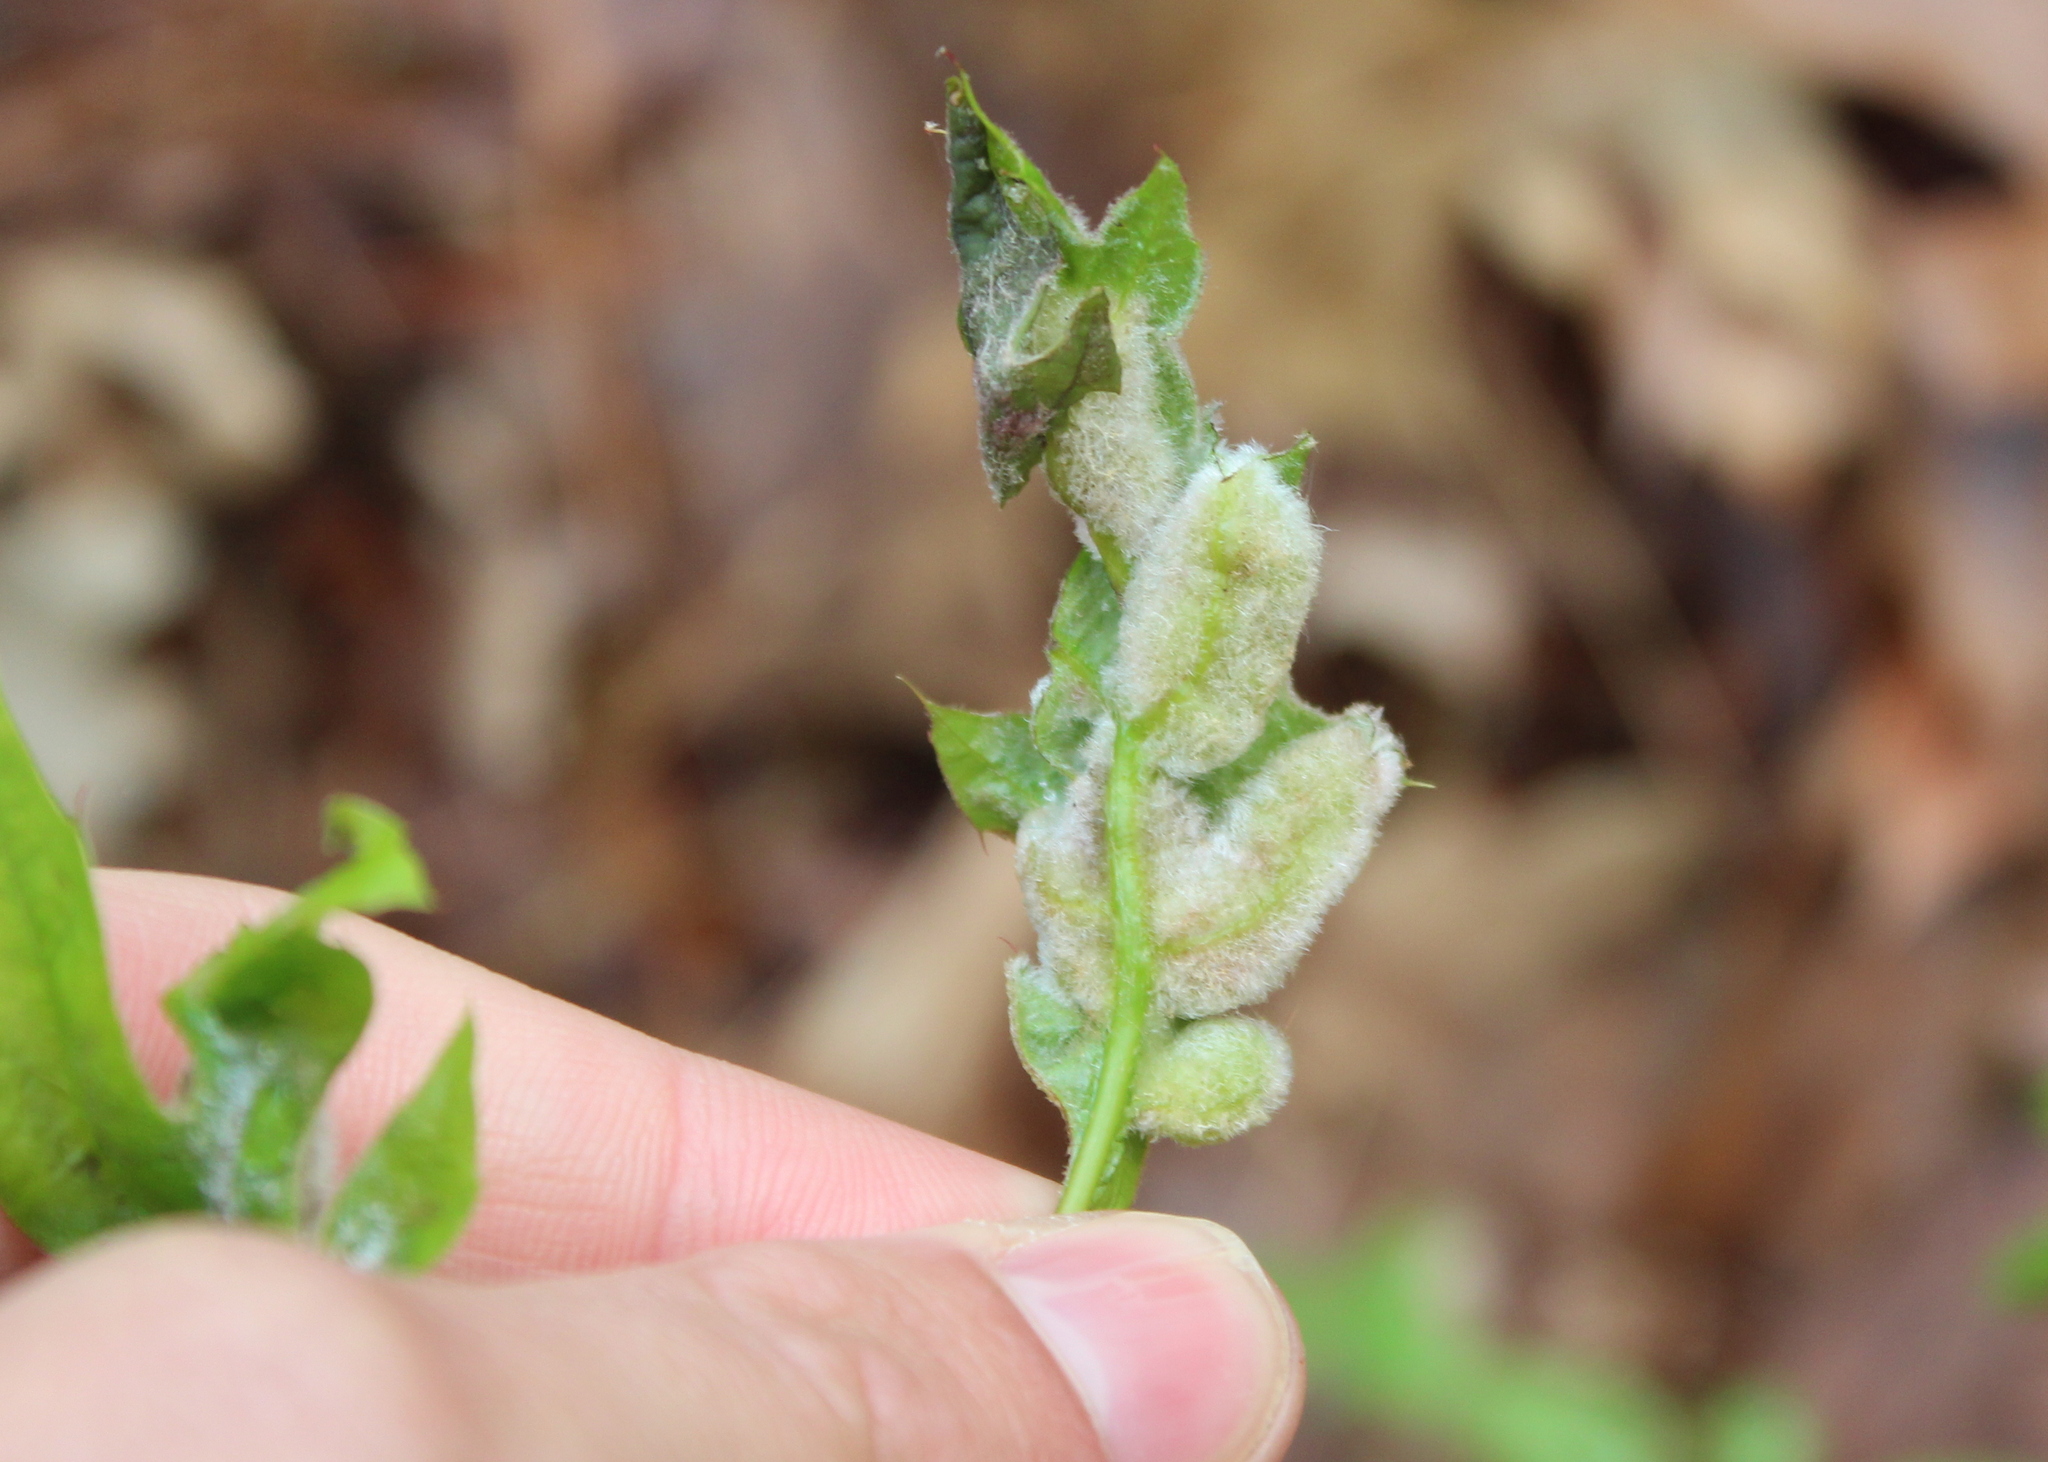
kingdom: Animalia
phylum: Arthropoda
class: Insecta
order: Diptera
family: Cecidomyiidae
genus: Macrodiplosis
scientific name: Macrodiplosis niveipila
